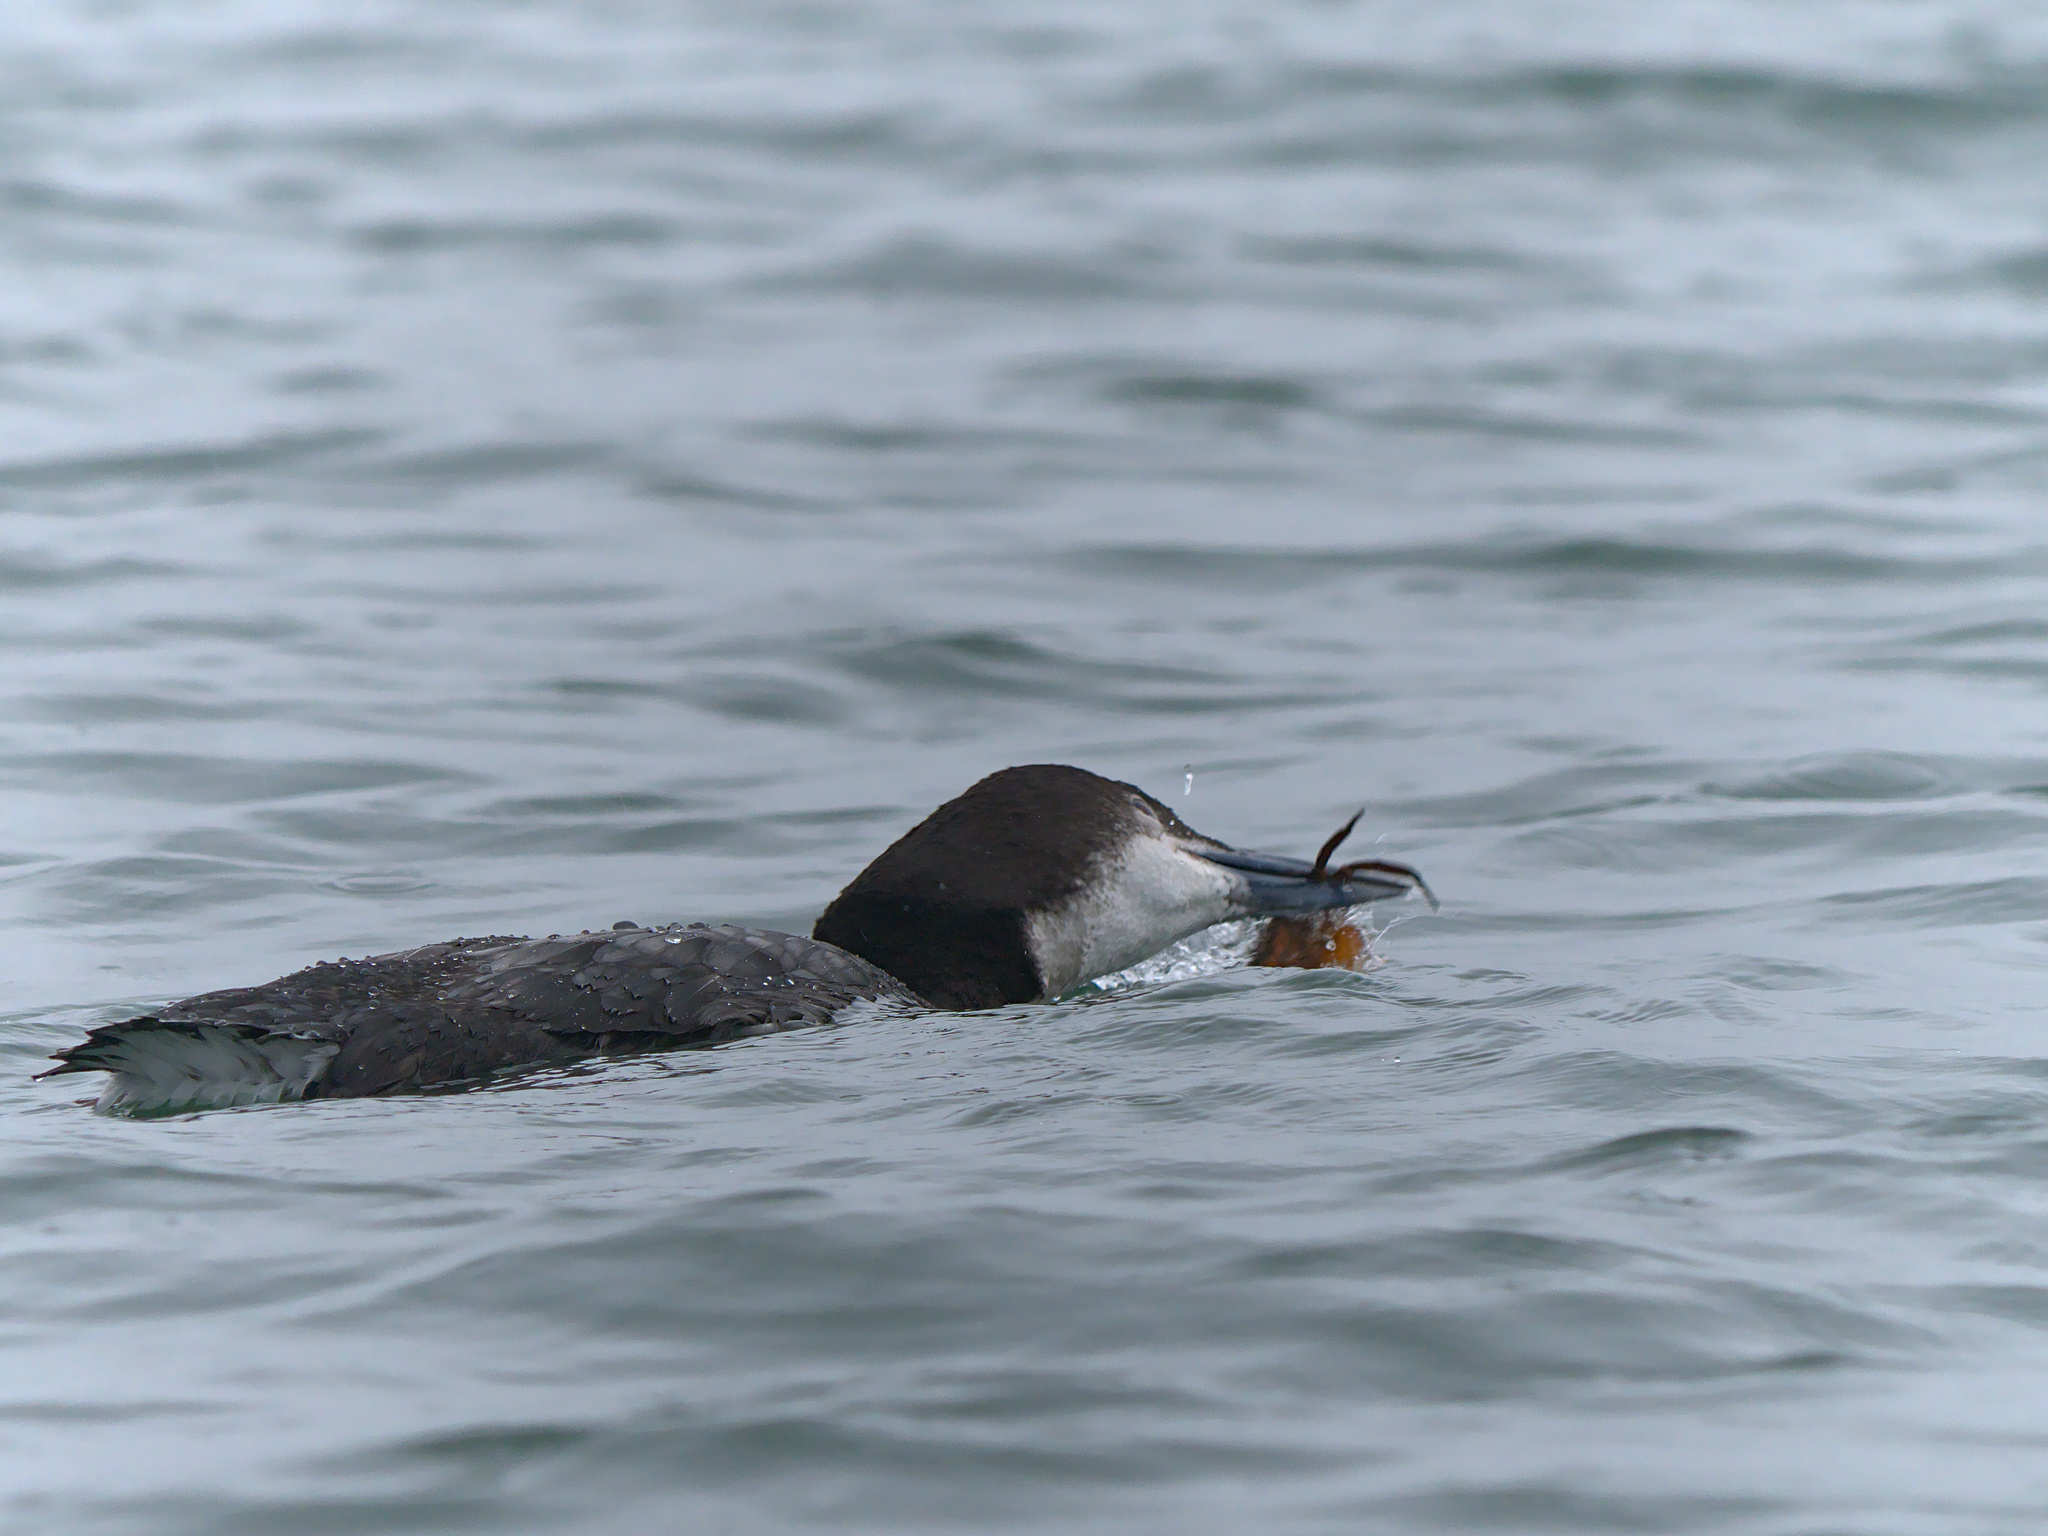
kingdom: Animalia
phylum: Chordata
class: Aves
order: Gaviiformes
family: Gaviidae
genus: Gavia
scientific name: Gavia immer
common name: Common loon
